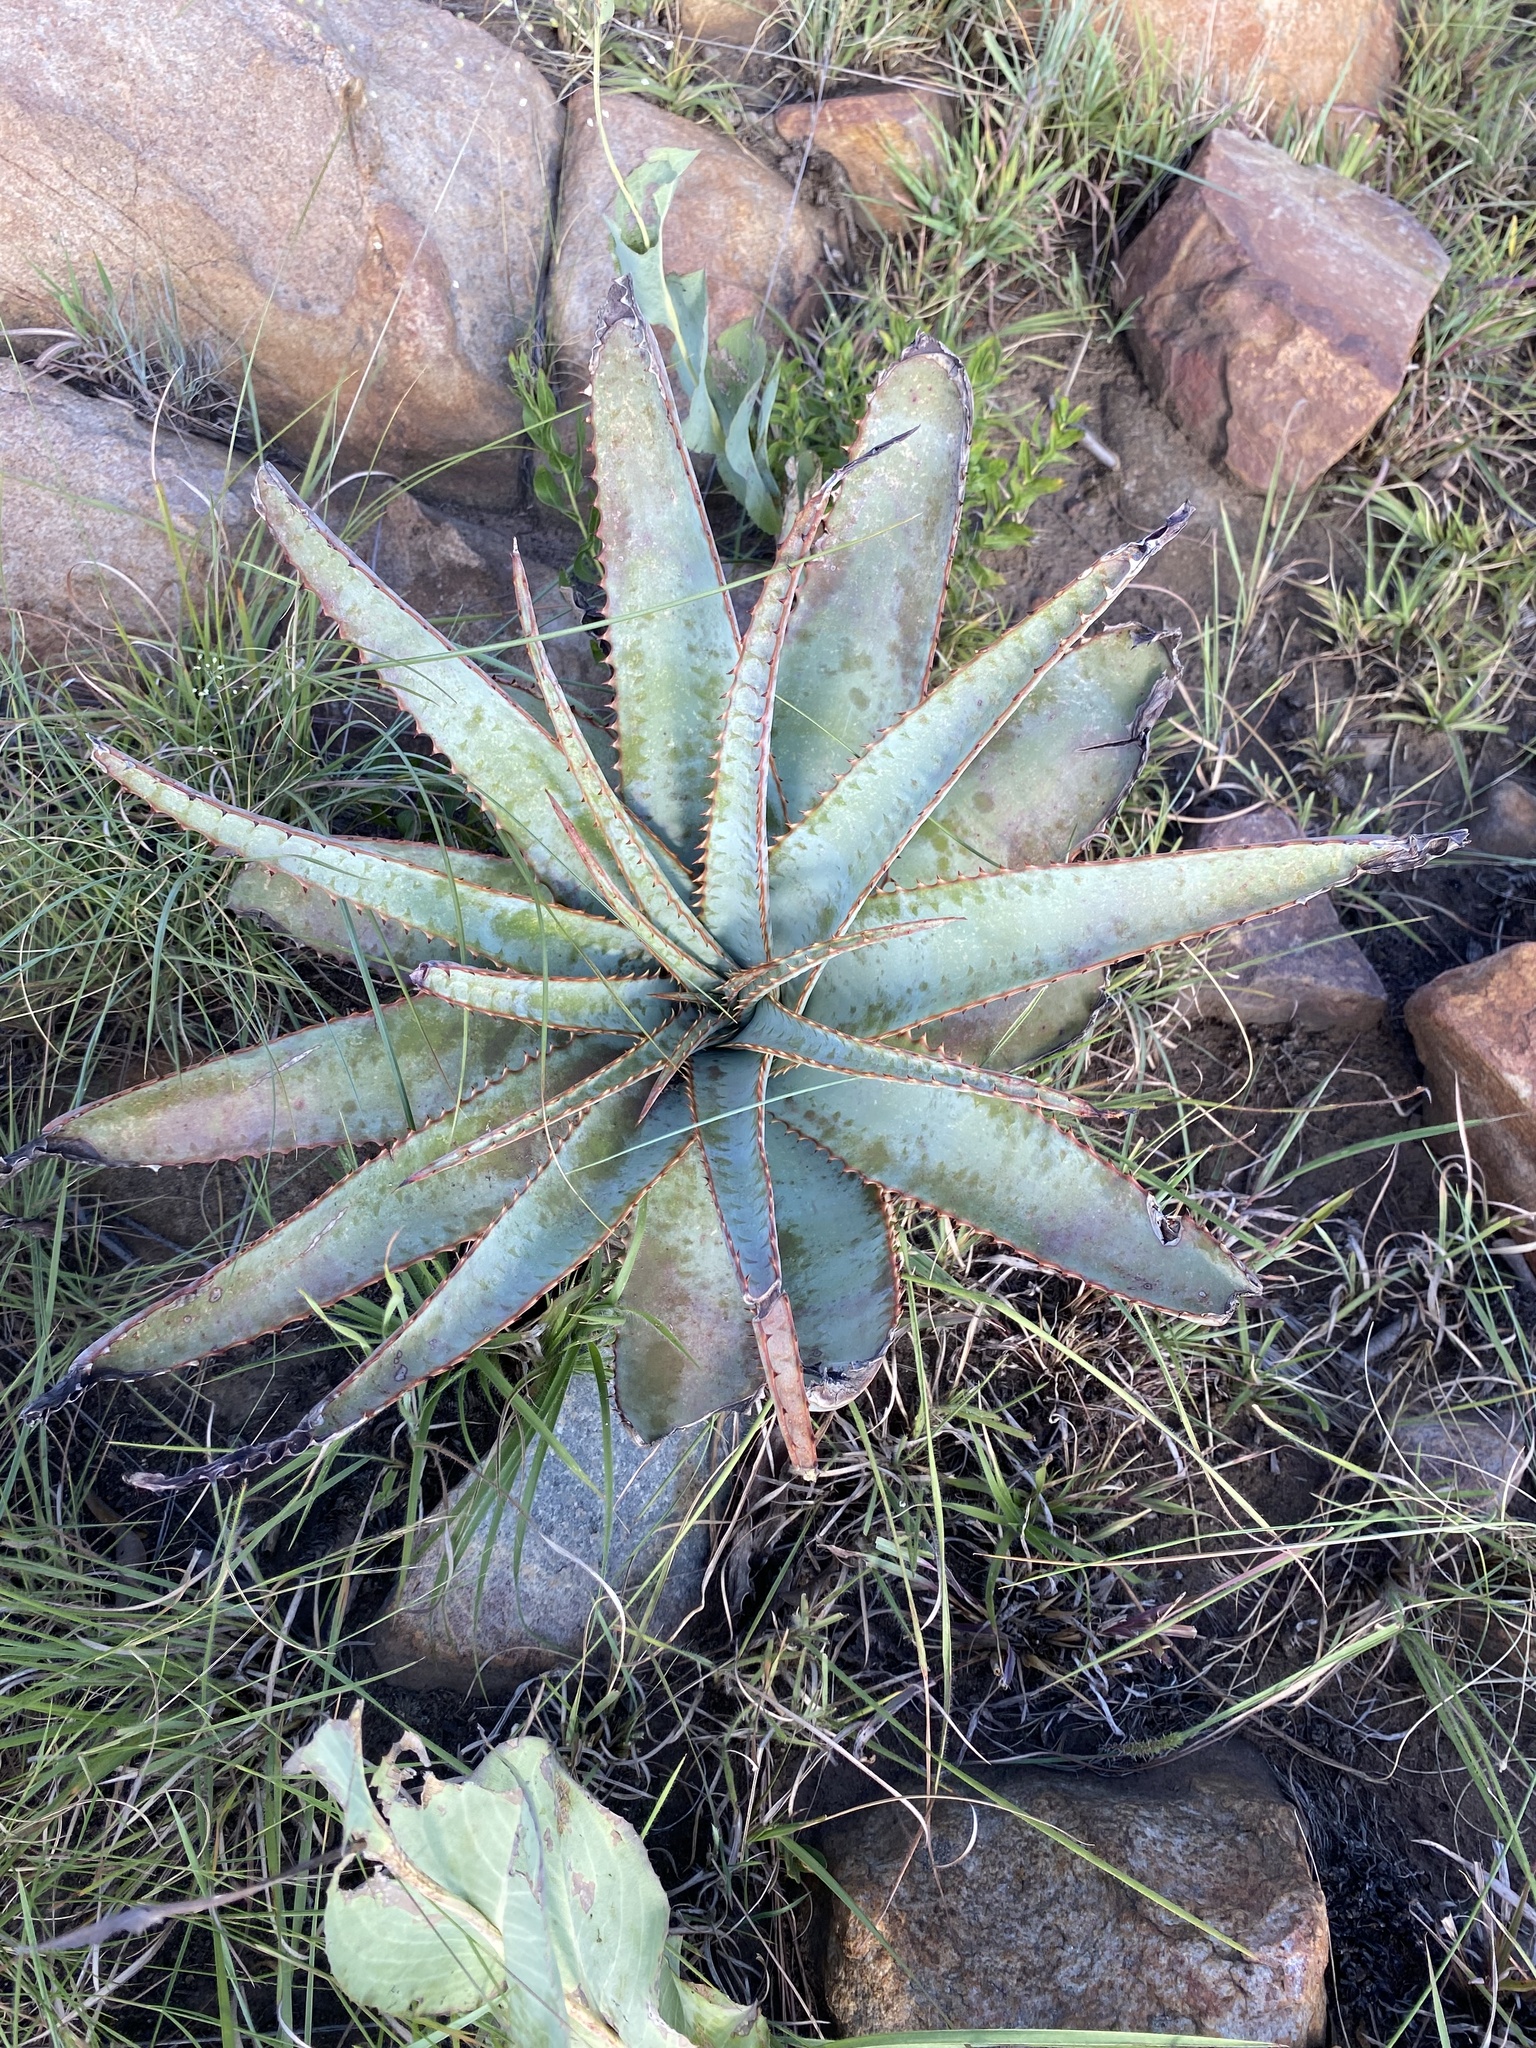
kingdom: Plantae
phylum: Tracheophyta
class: Liliopsida
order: Asparagales
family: Asphodelaceae
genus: Aloe
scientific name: Aloe suprafoliata
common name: Book aloe
